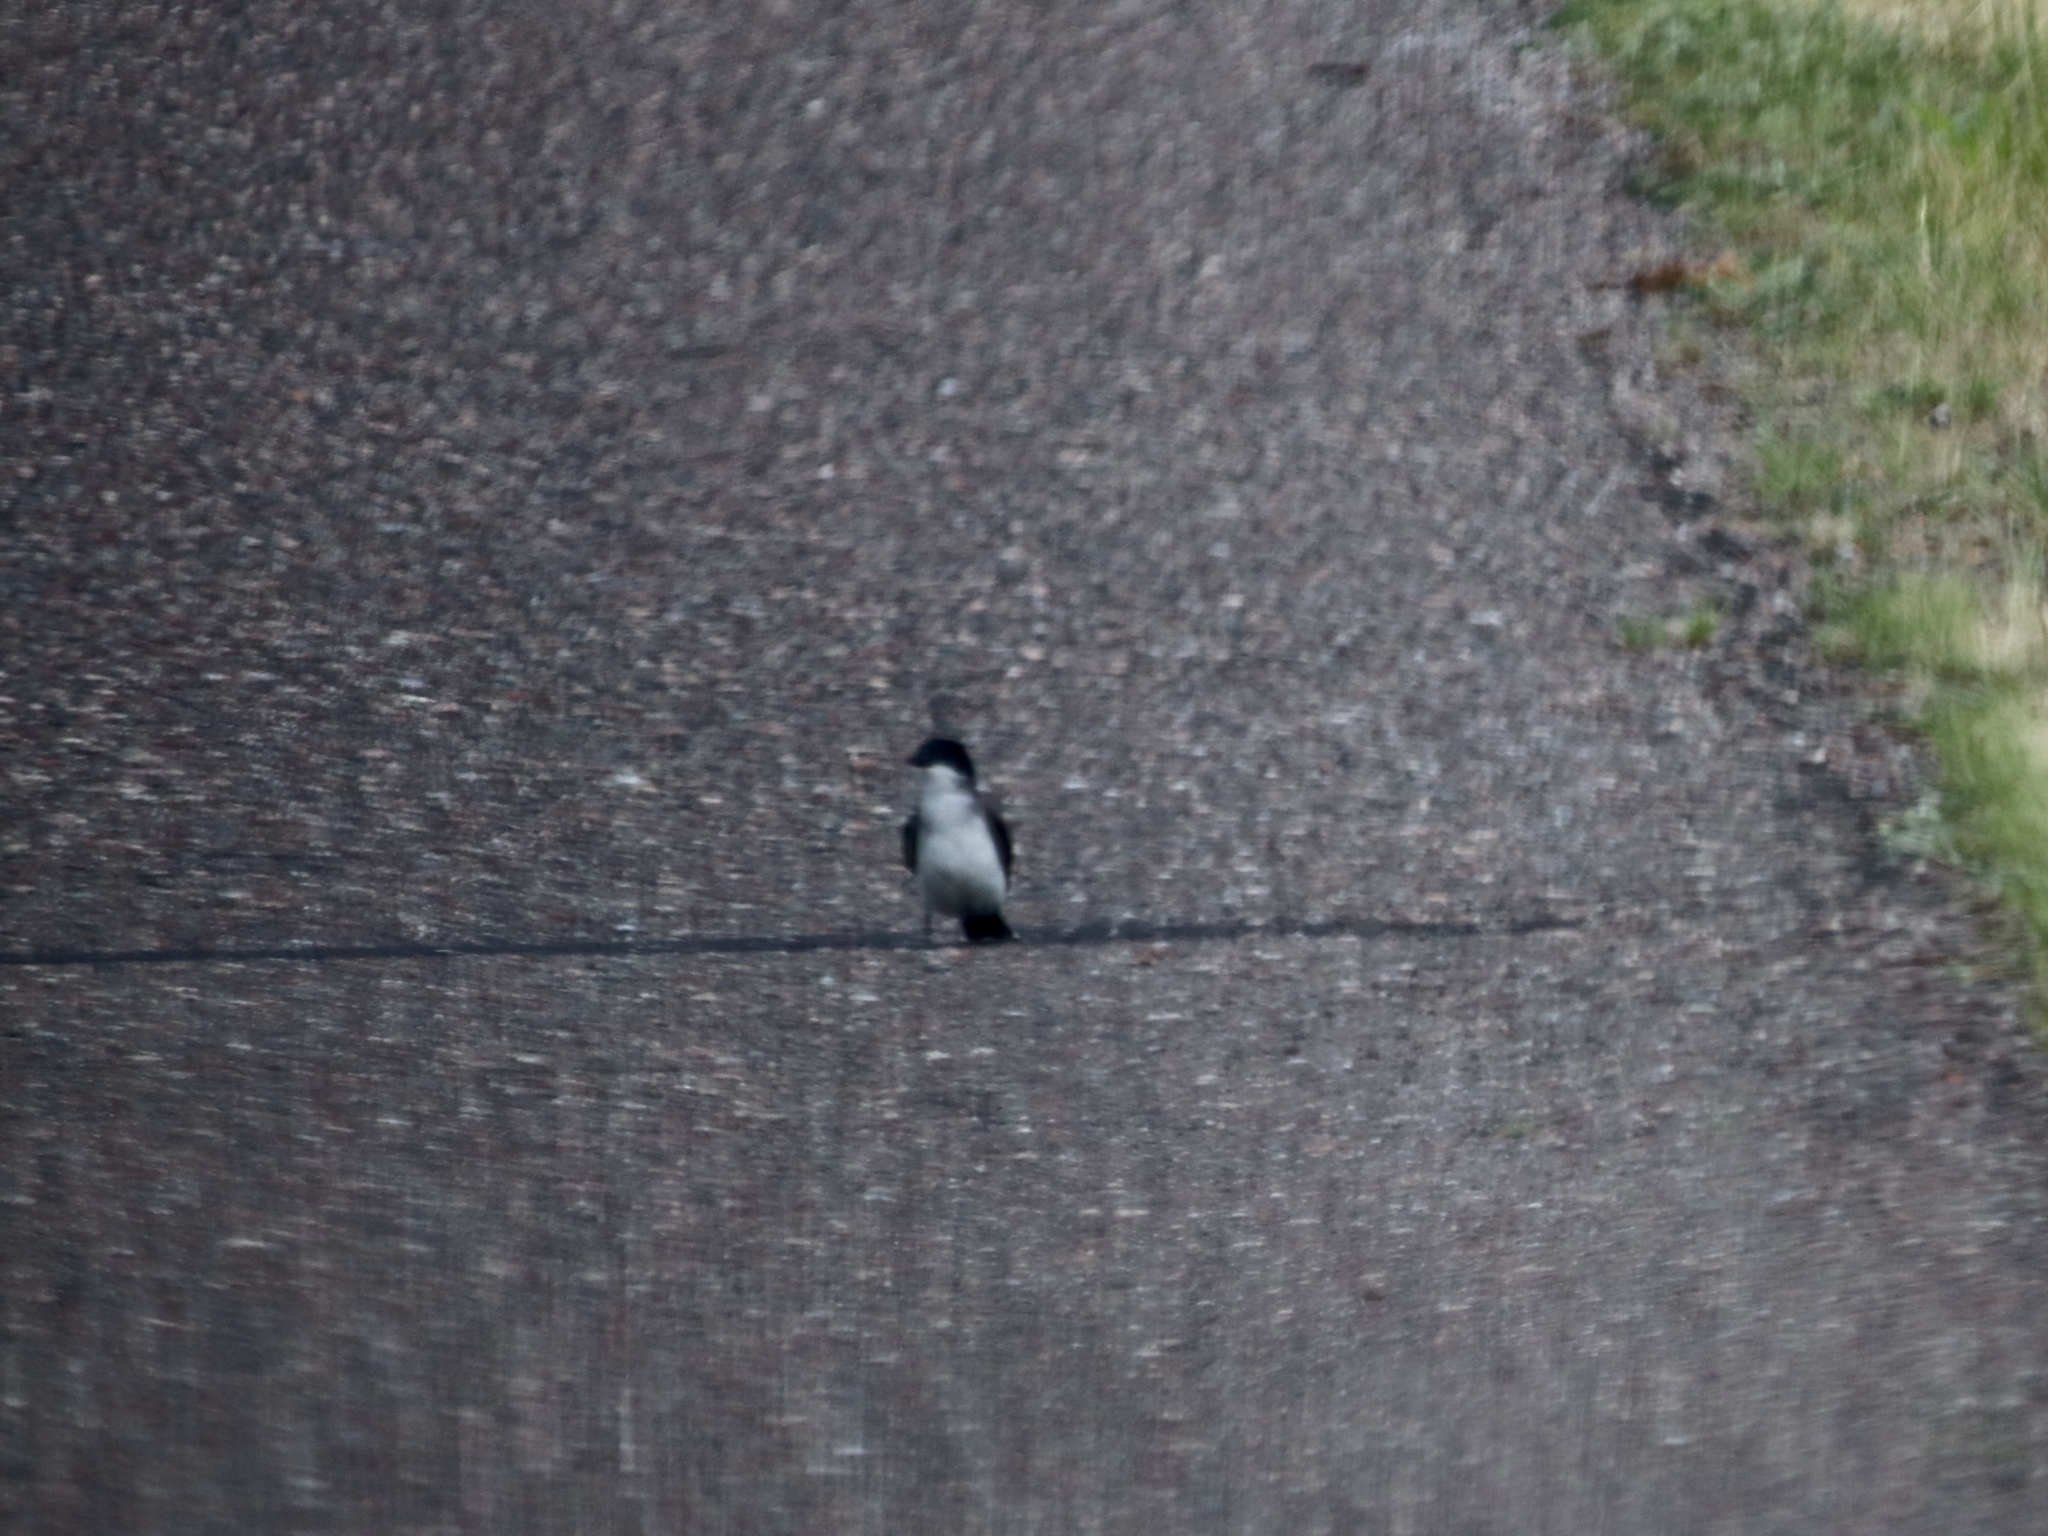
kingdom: Animalia
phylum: Chordata
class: Aves
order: Passeriformes
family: Tyrannidae
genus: Tyrannus
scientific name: Tyrannus tyrannus
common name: Eastern kingbird
